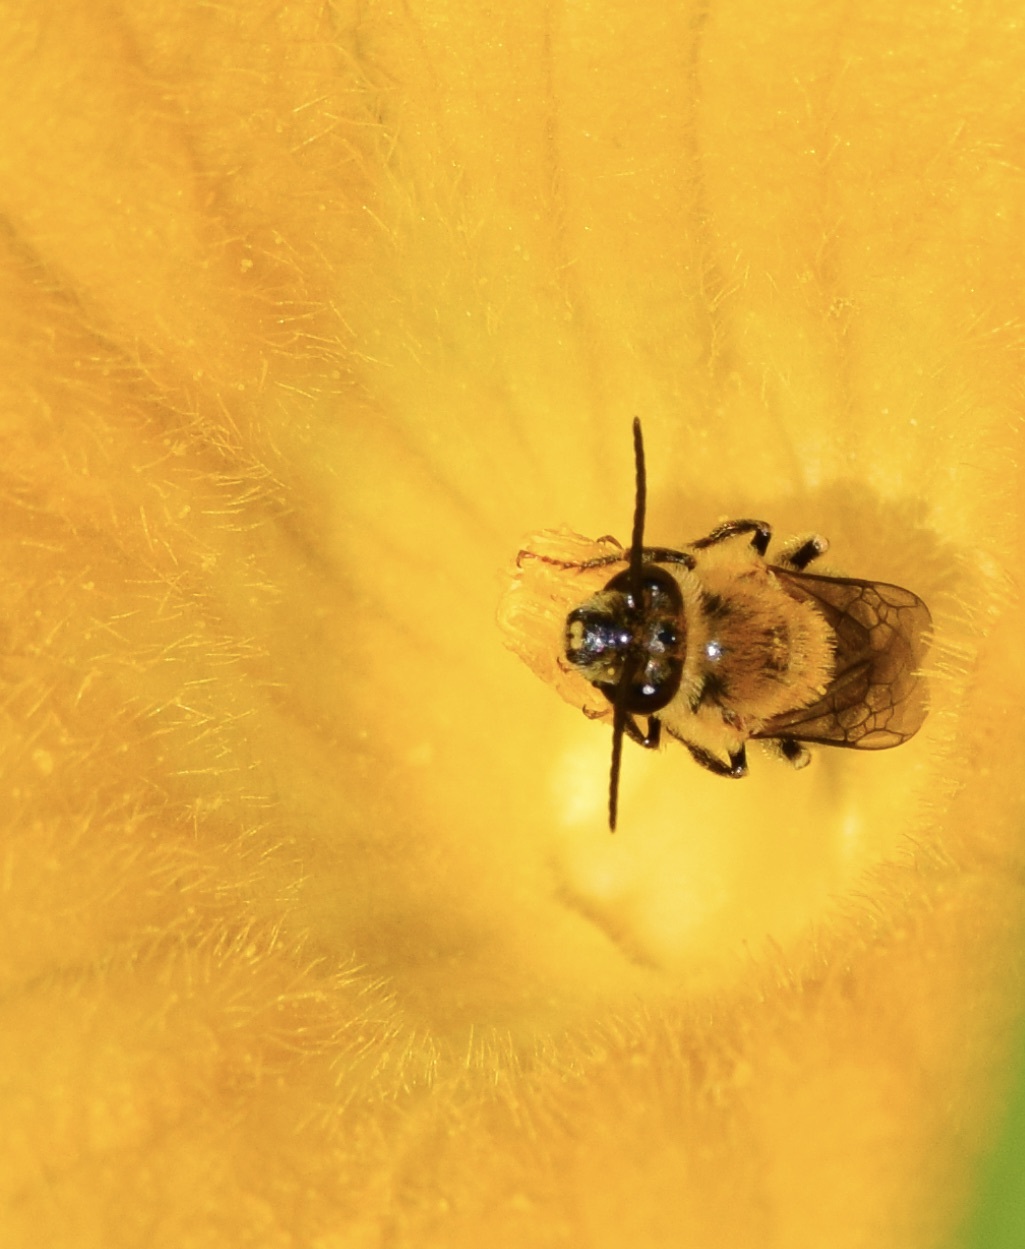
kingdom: Animalia
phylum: Arthropoda
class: Insecta
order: Hymenoptera
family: Apidae
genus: Peponapis
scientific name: Peponapis pruinosa
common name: Pruinose squash bee
